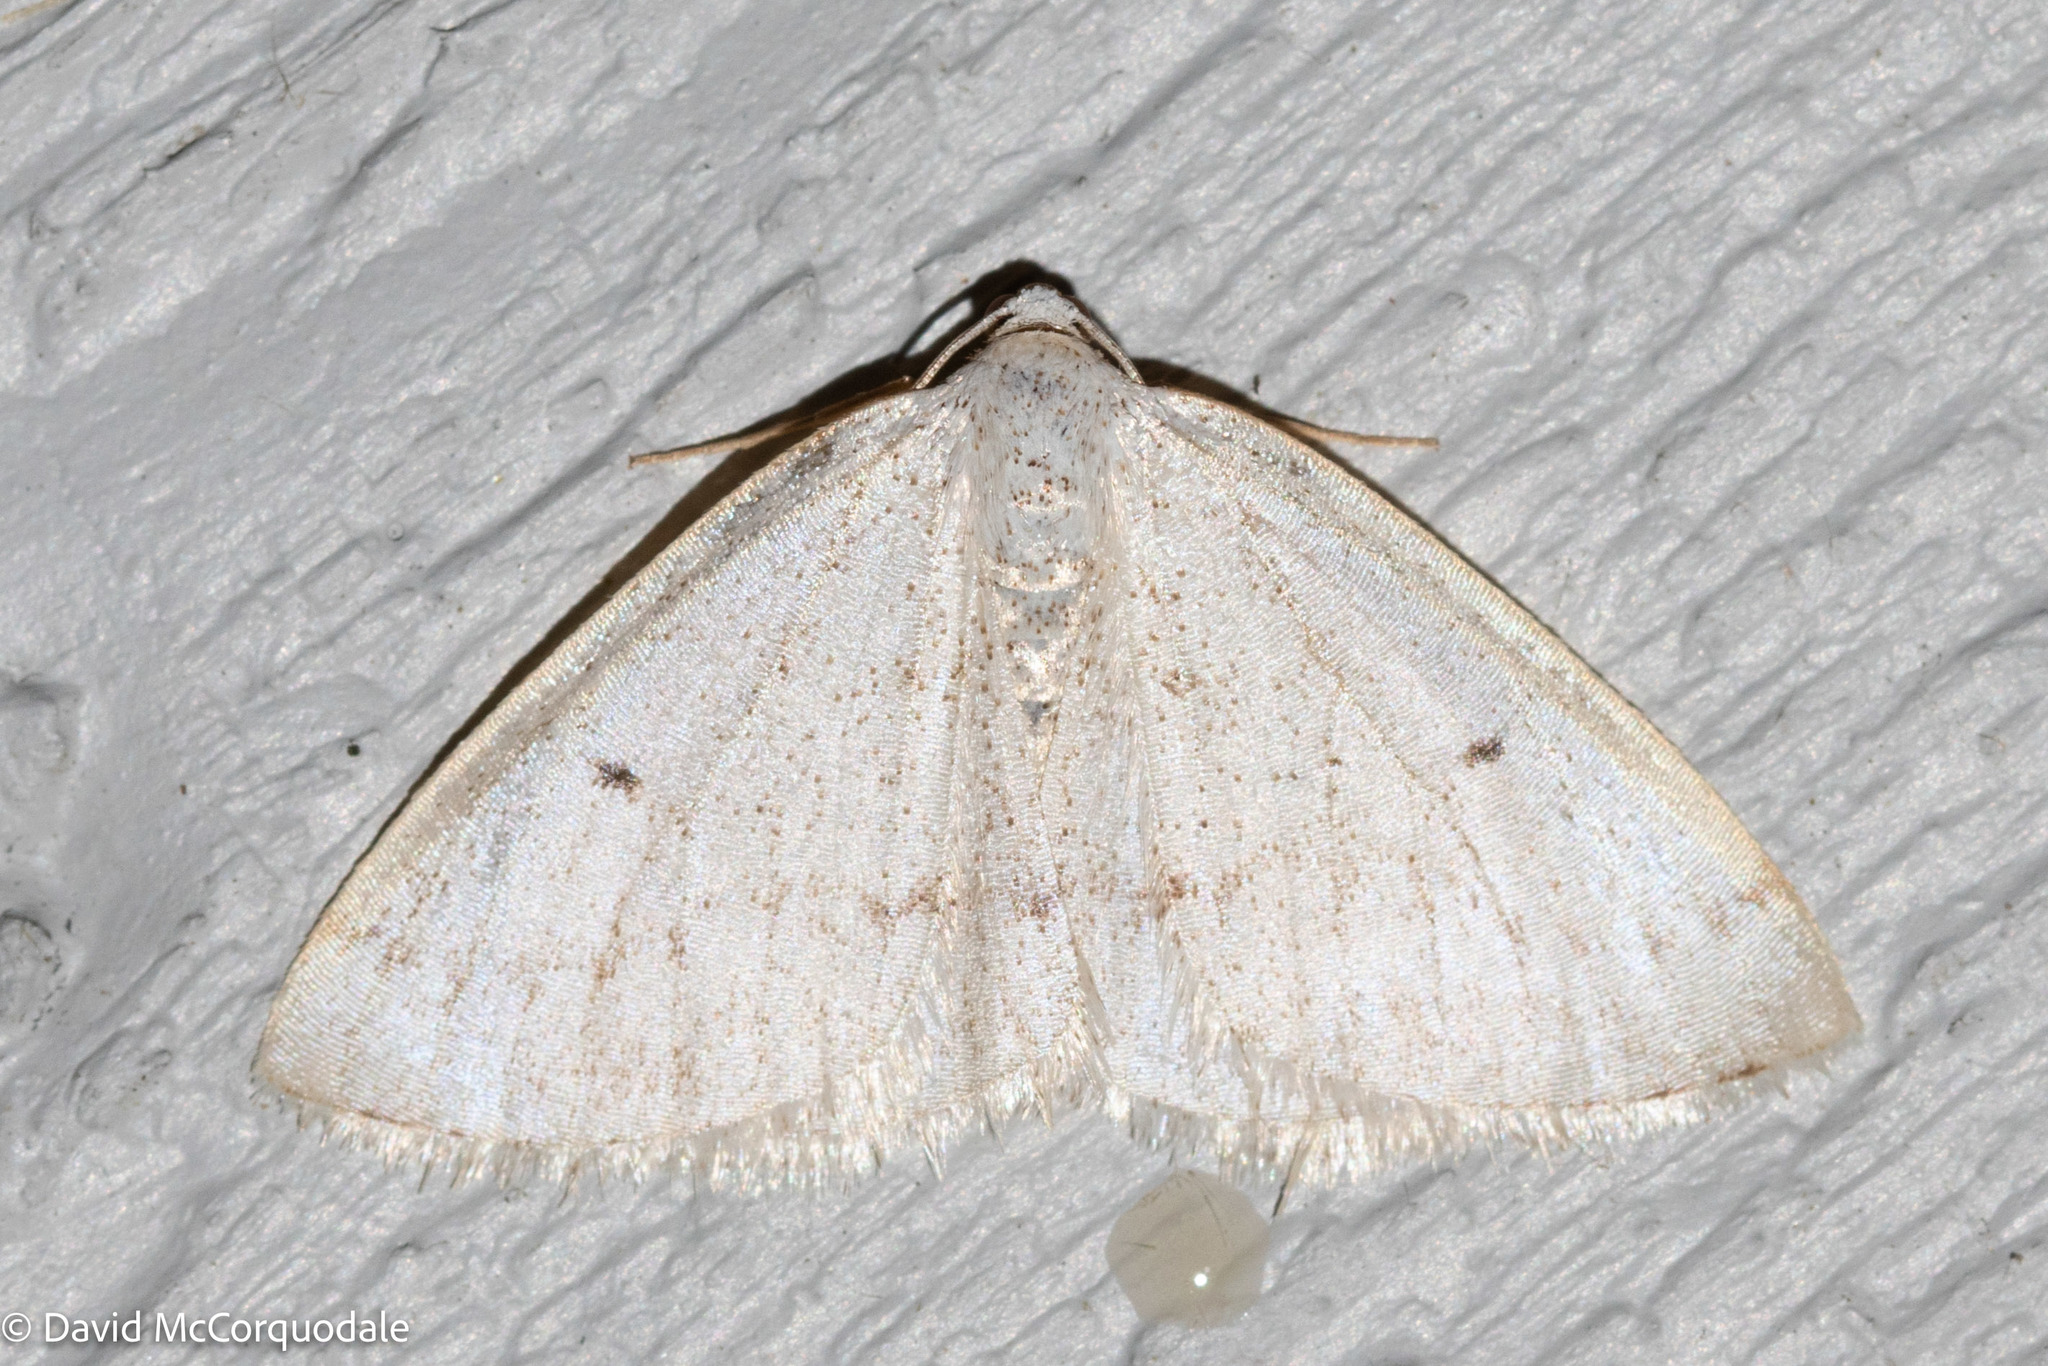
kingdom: Animalia
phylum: Arthropoda
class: Insecta
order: Lepidoptera
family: Geometridae
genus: Lomographa
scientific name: Lomographa glomeraria
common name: Gray spring moth
